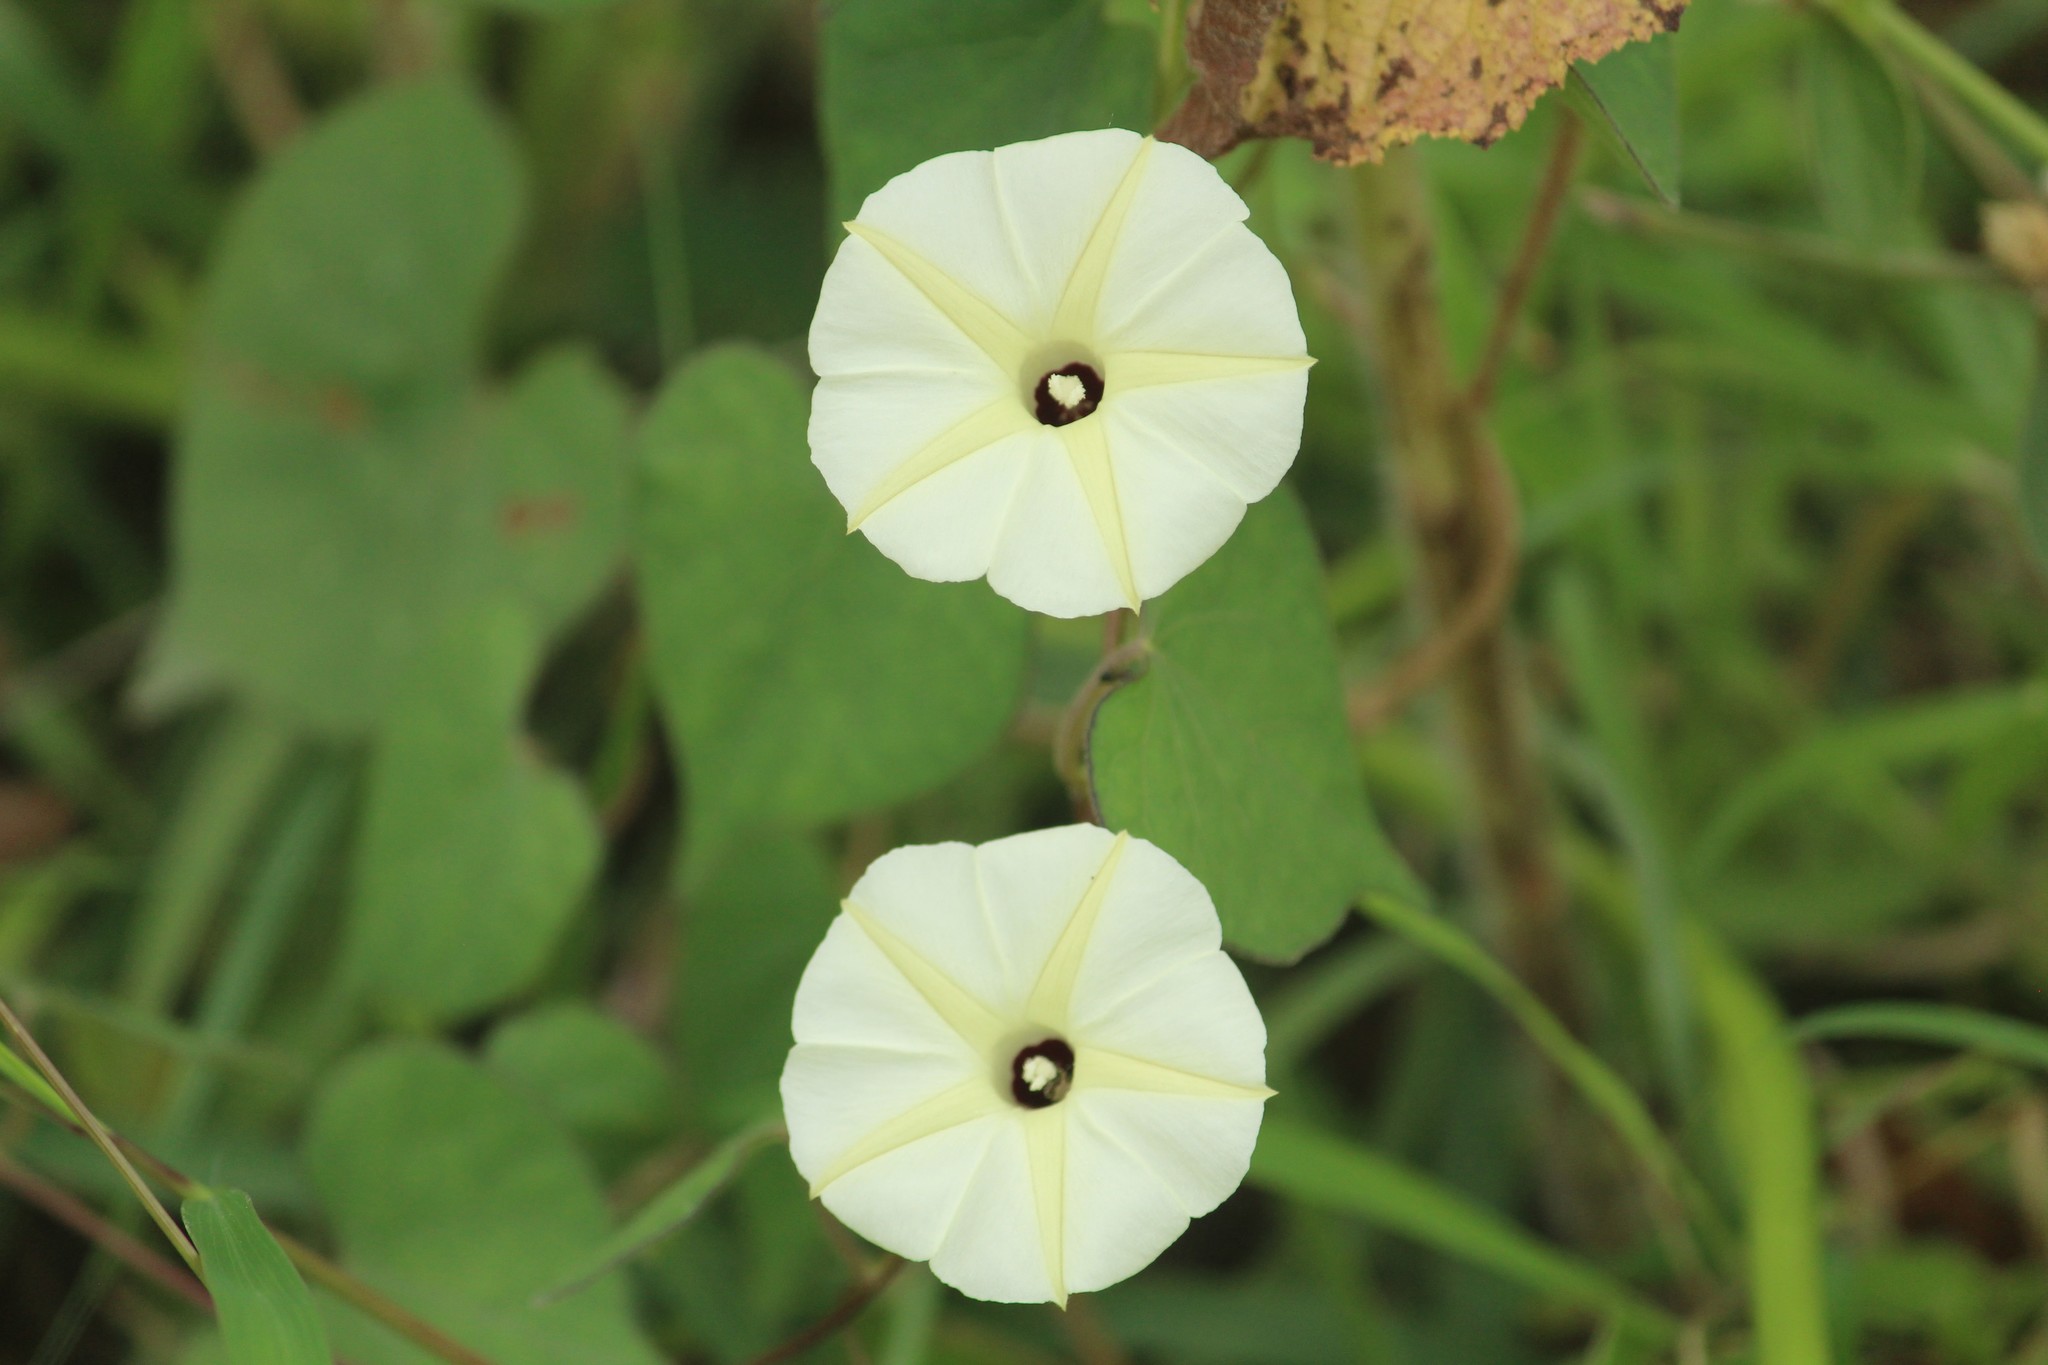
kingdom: Plantae
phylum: Tracheophyta
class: Magnoliopsida
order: Solanales
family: Convolvulaceae
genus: Ipomoea
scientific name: Ipomoea obscura
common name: Obscure morning-glory
